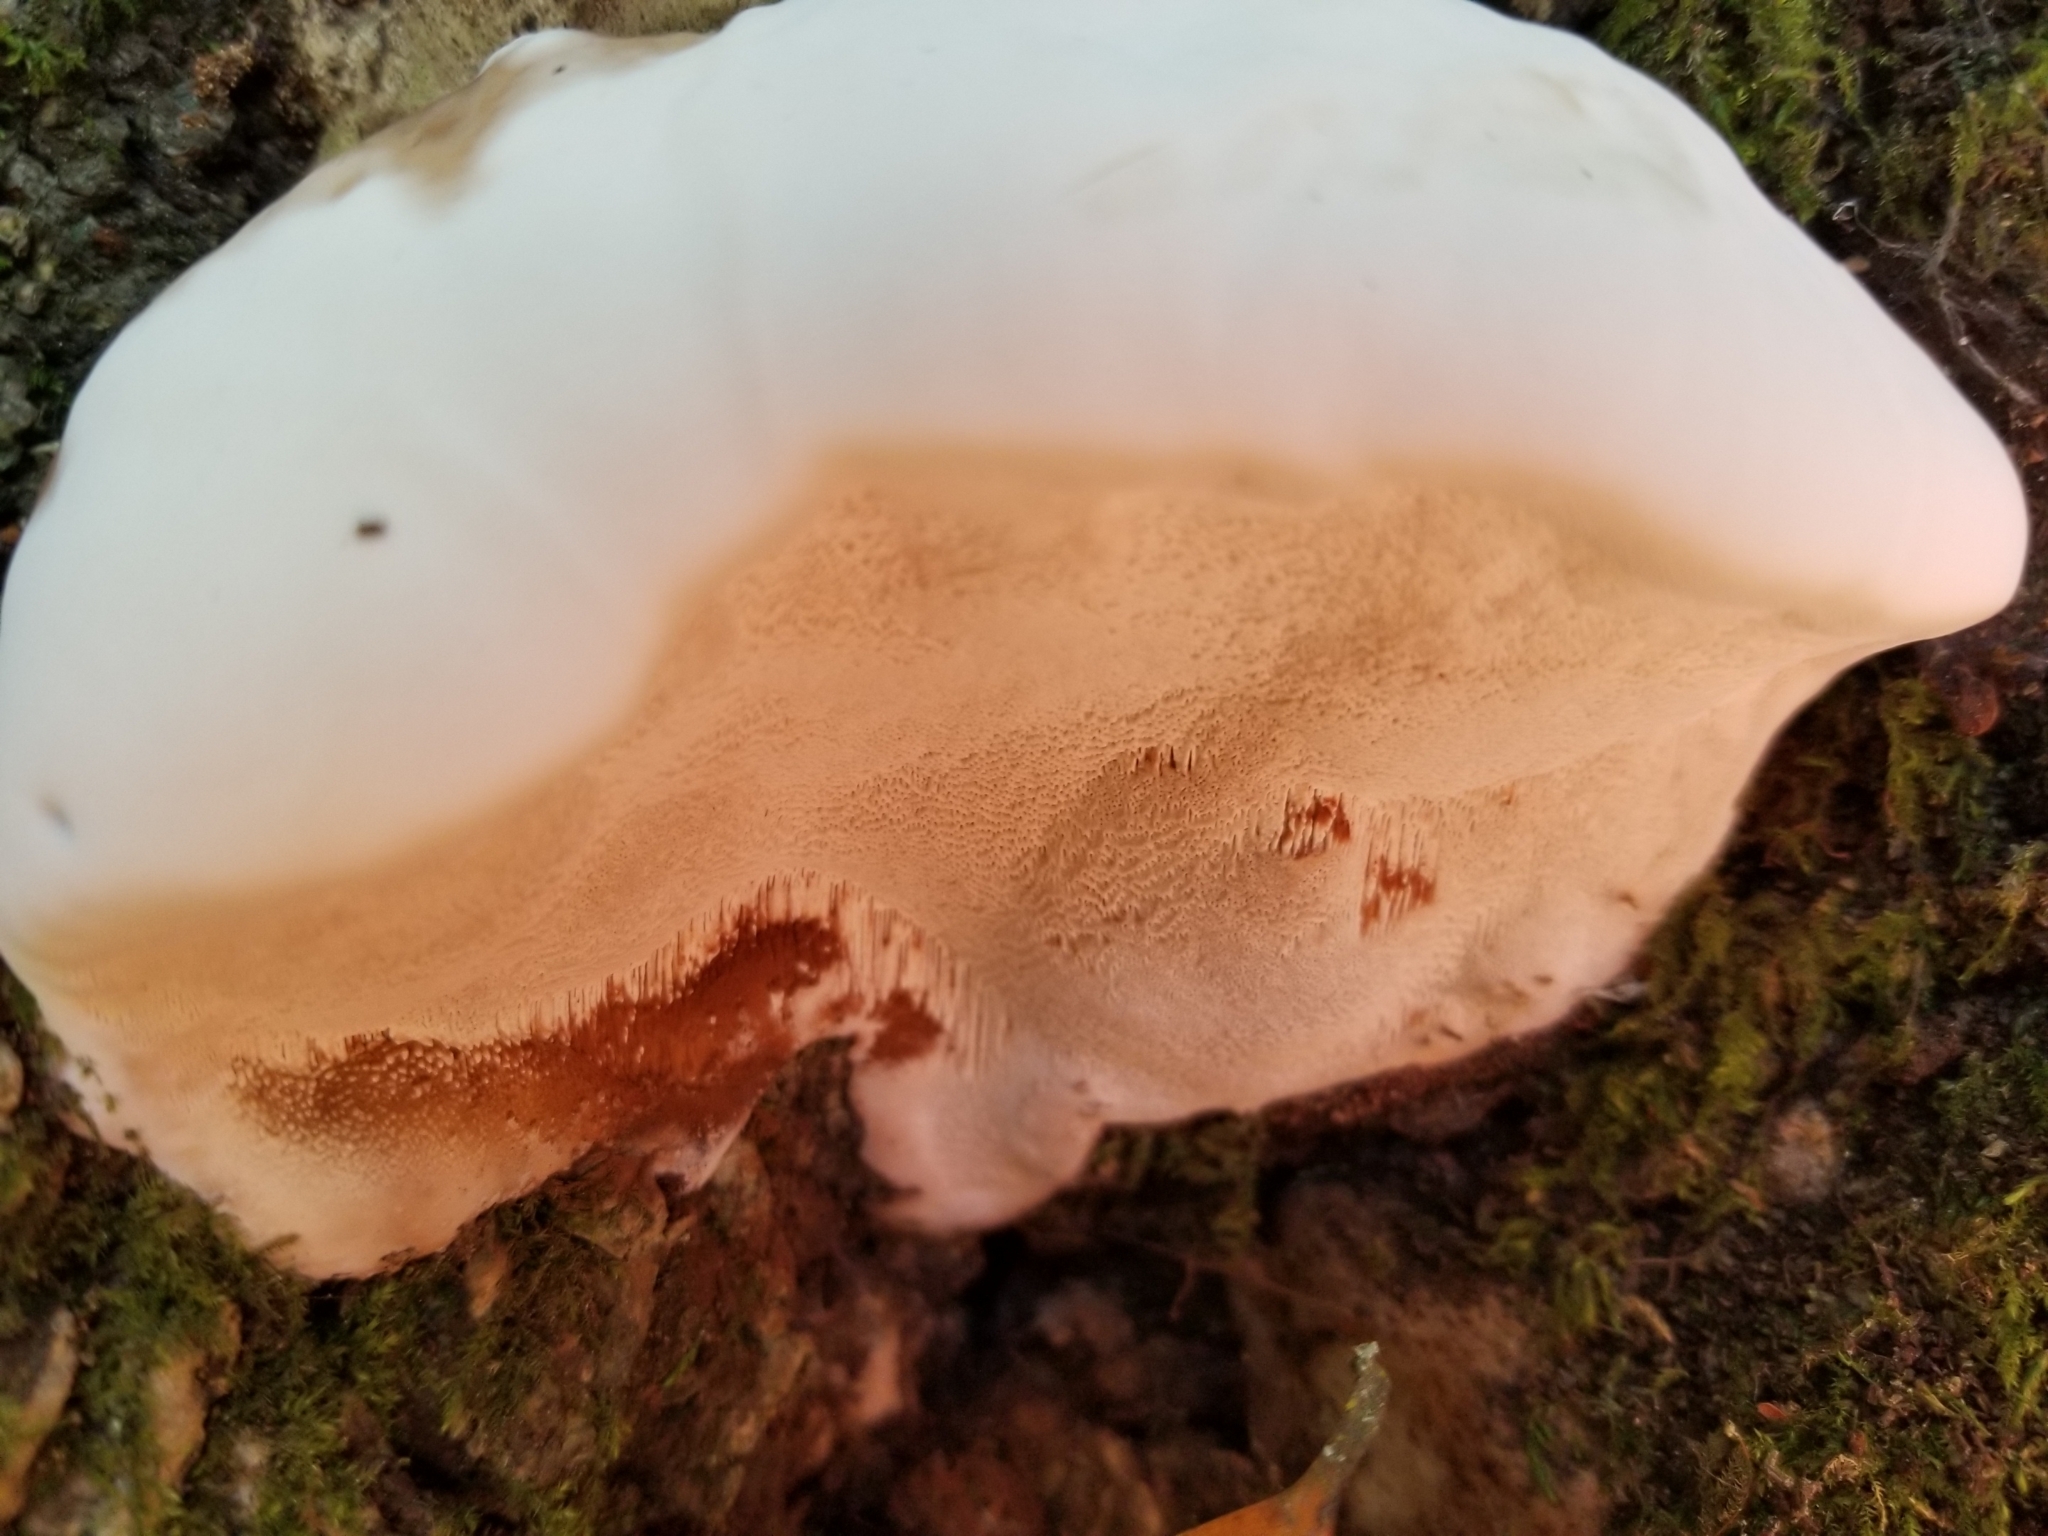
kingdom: Fungi
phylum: Basidiomycota
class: Agaricomycetes
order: Polyporales
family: Polyporaceae
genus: Ganoderma
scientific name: Ganoderma brownii
